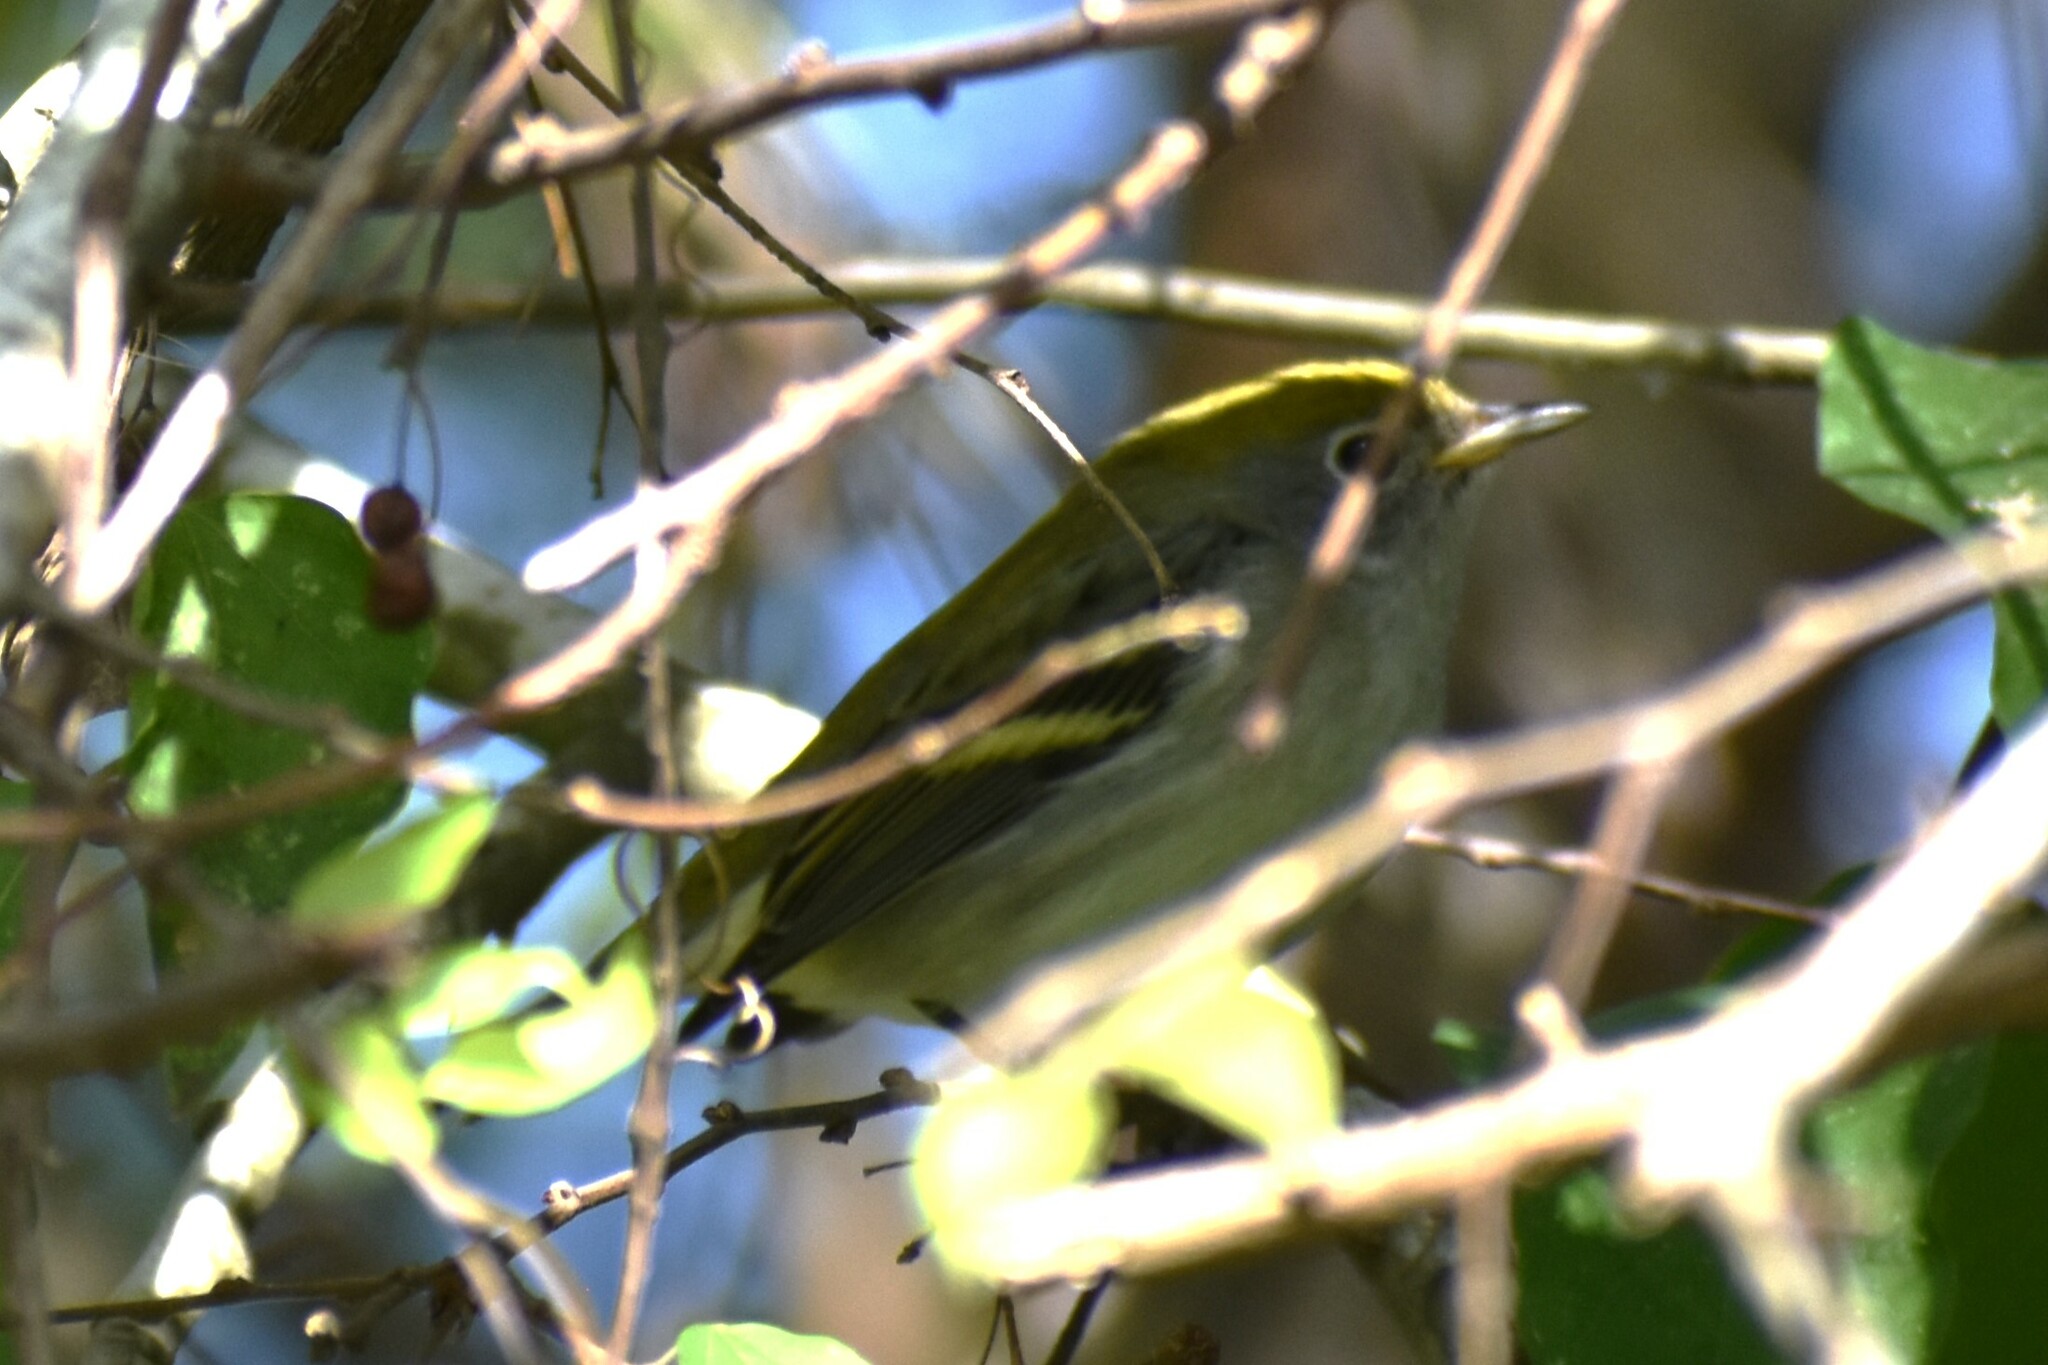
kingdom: Animalia
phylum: Chordata
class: Aves
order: Passeriformes
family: Parulidae
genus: Setophaga
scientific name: Setophaga pensylvanica
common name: Chestnut-sided warbler
